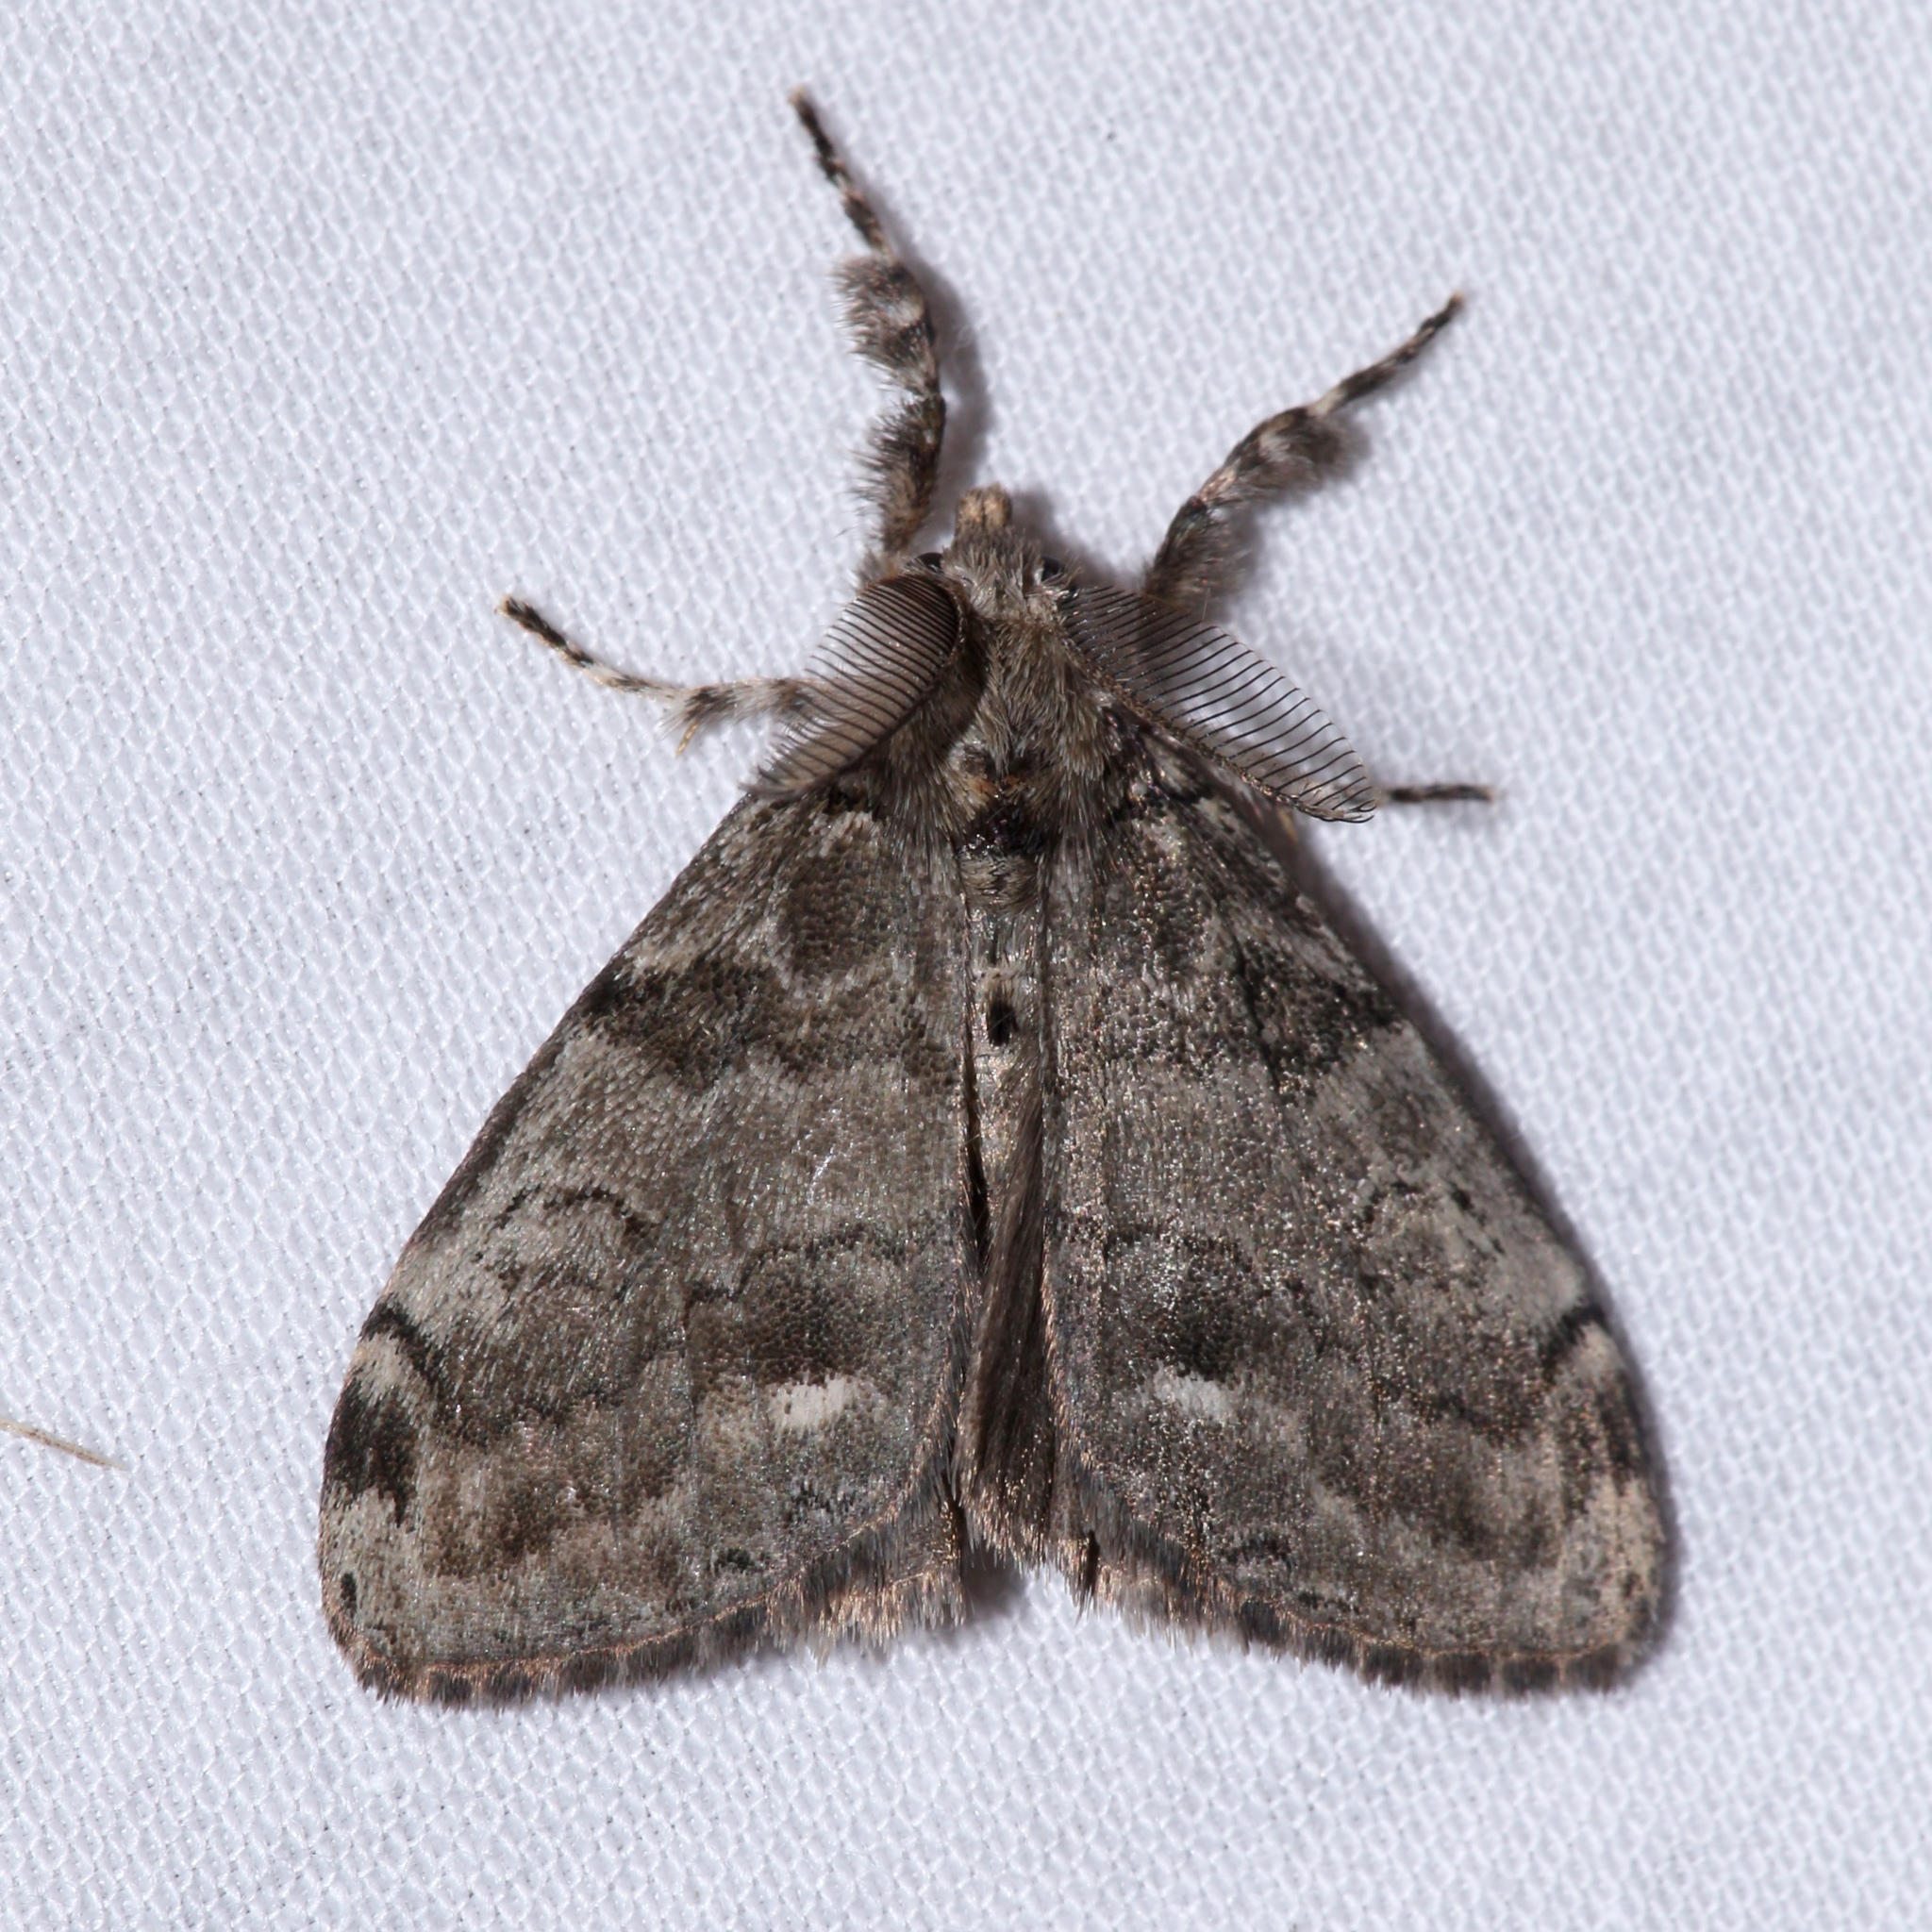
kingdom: Animalia
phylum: Arthropoda
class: Insecta
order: Lepidoptera
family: Erebidae
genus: Orgyia
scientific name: Orgyia leucostigma
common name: White-marked tussock moth
